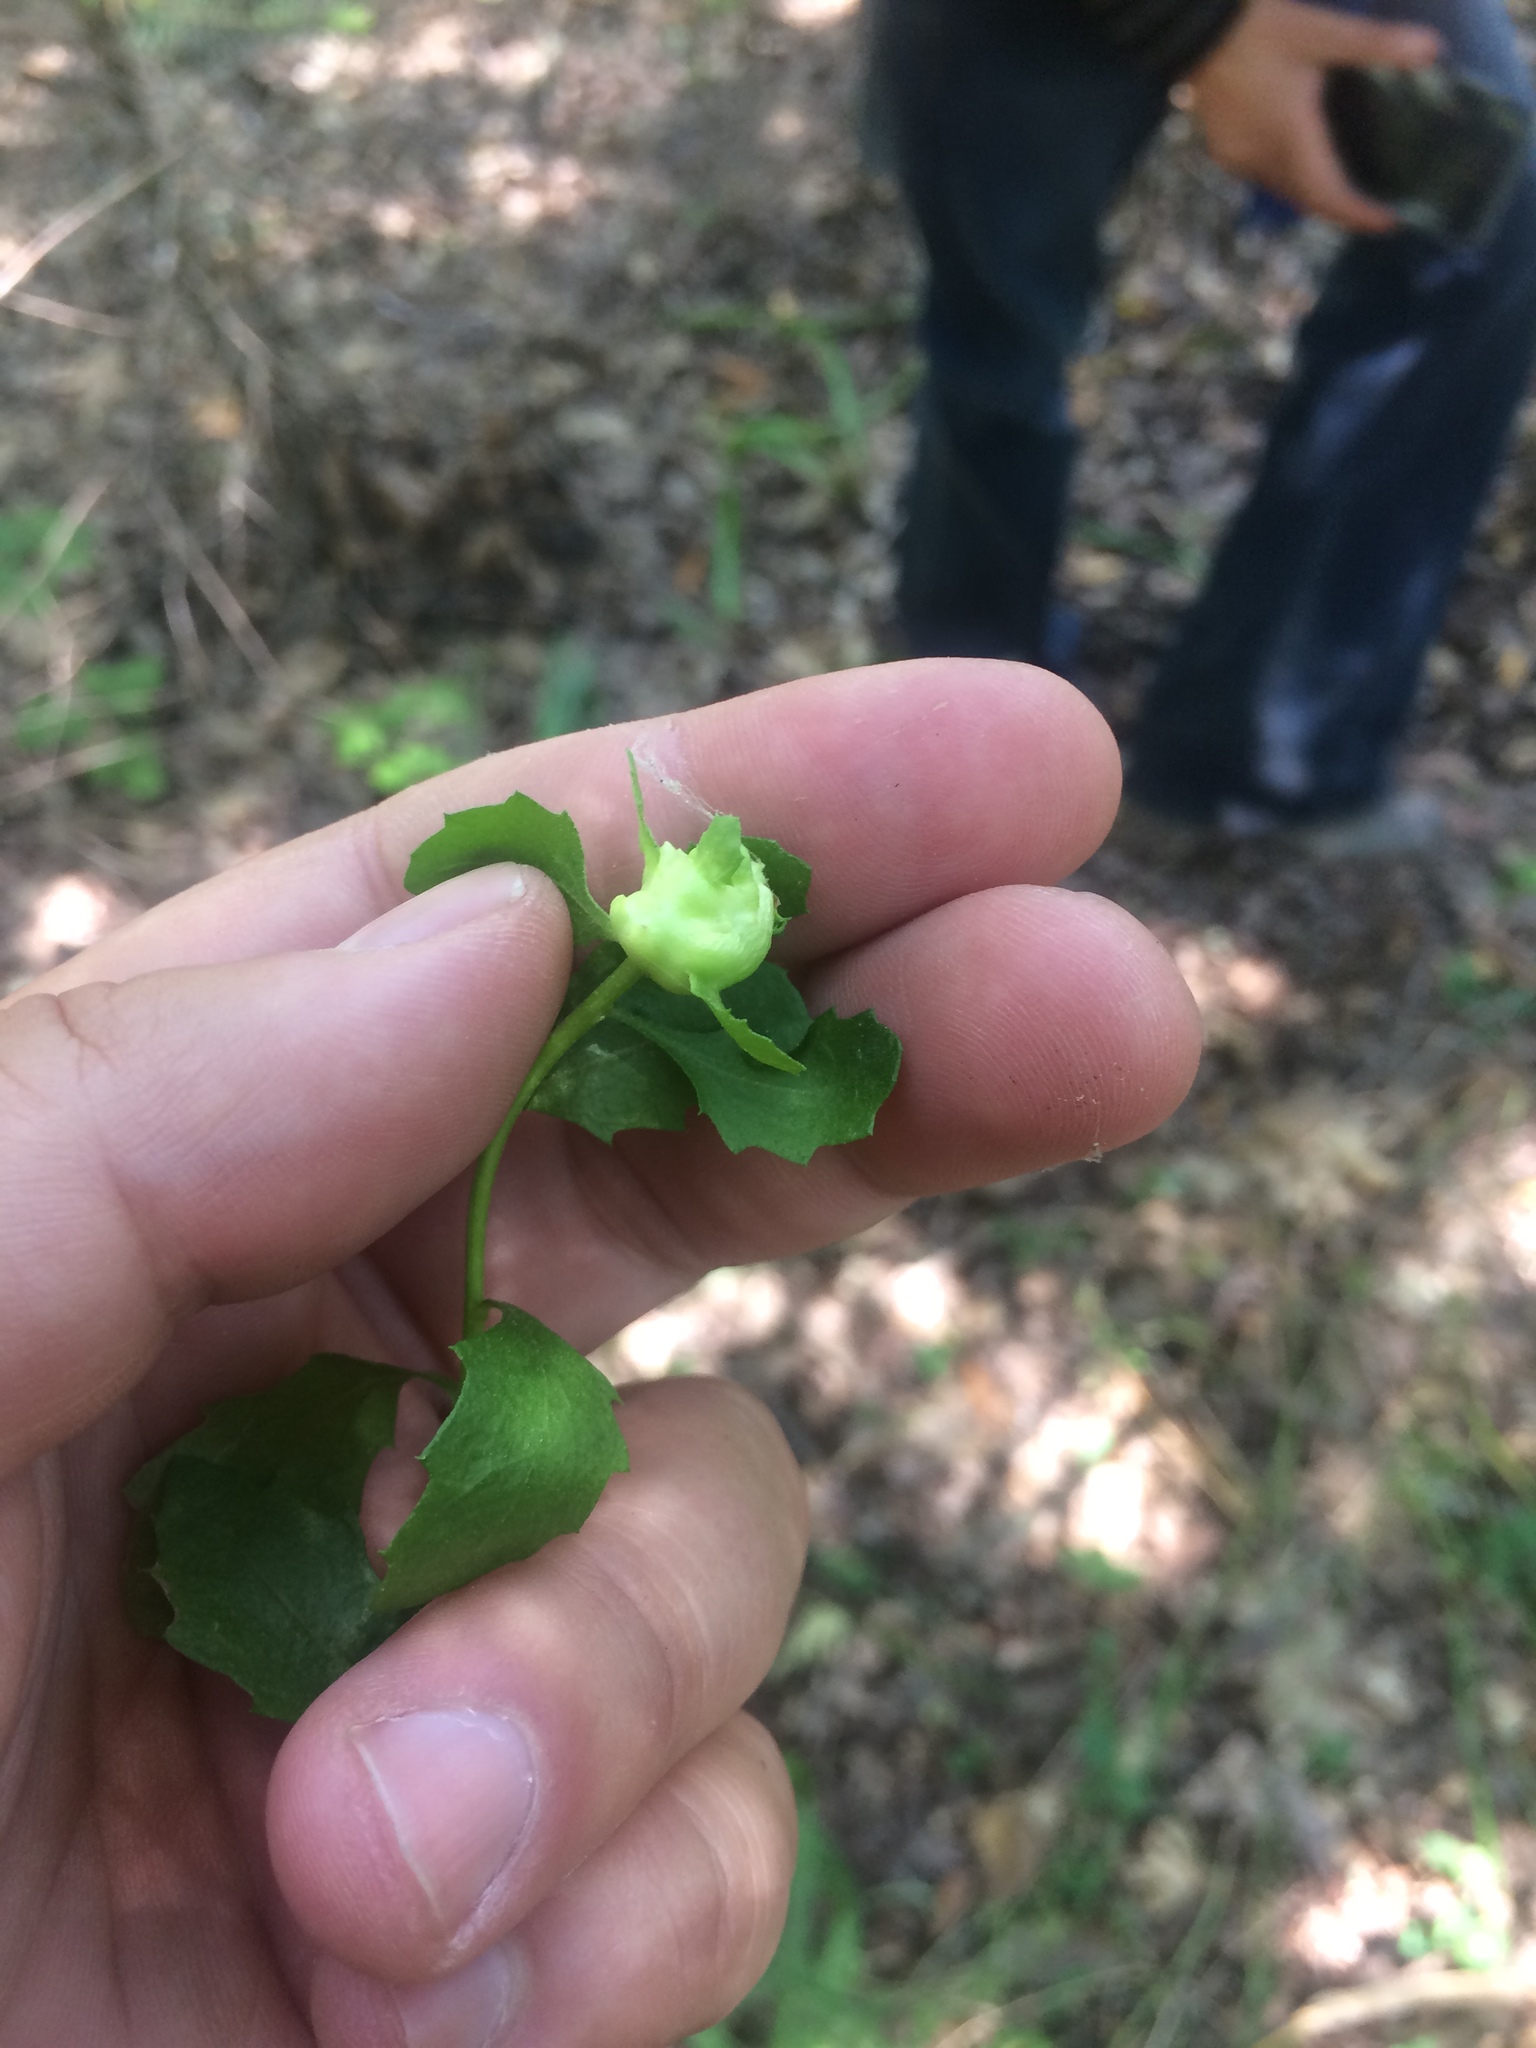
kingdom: Animalia
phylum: Arthropoda
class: Insecta
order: Diptera
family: Cecidomyiidae
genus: Rhopalomyia
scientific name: Rhopalomyia californica
